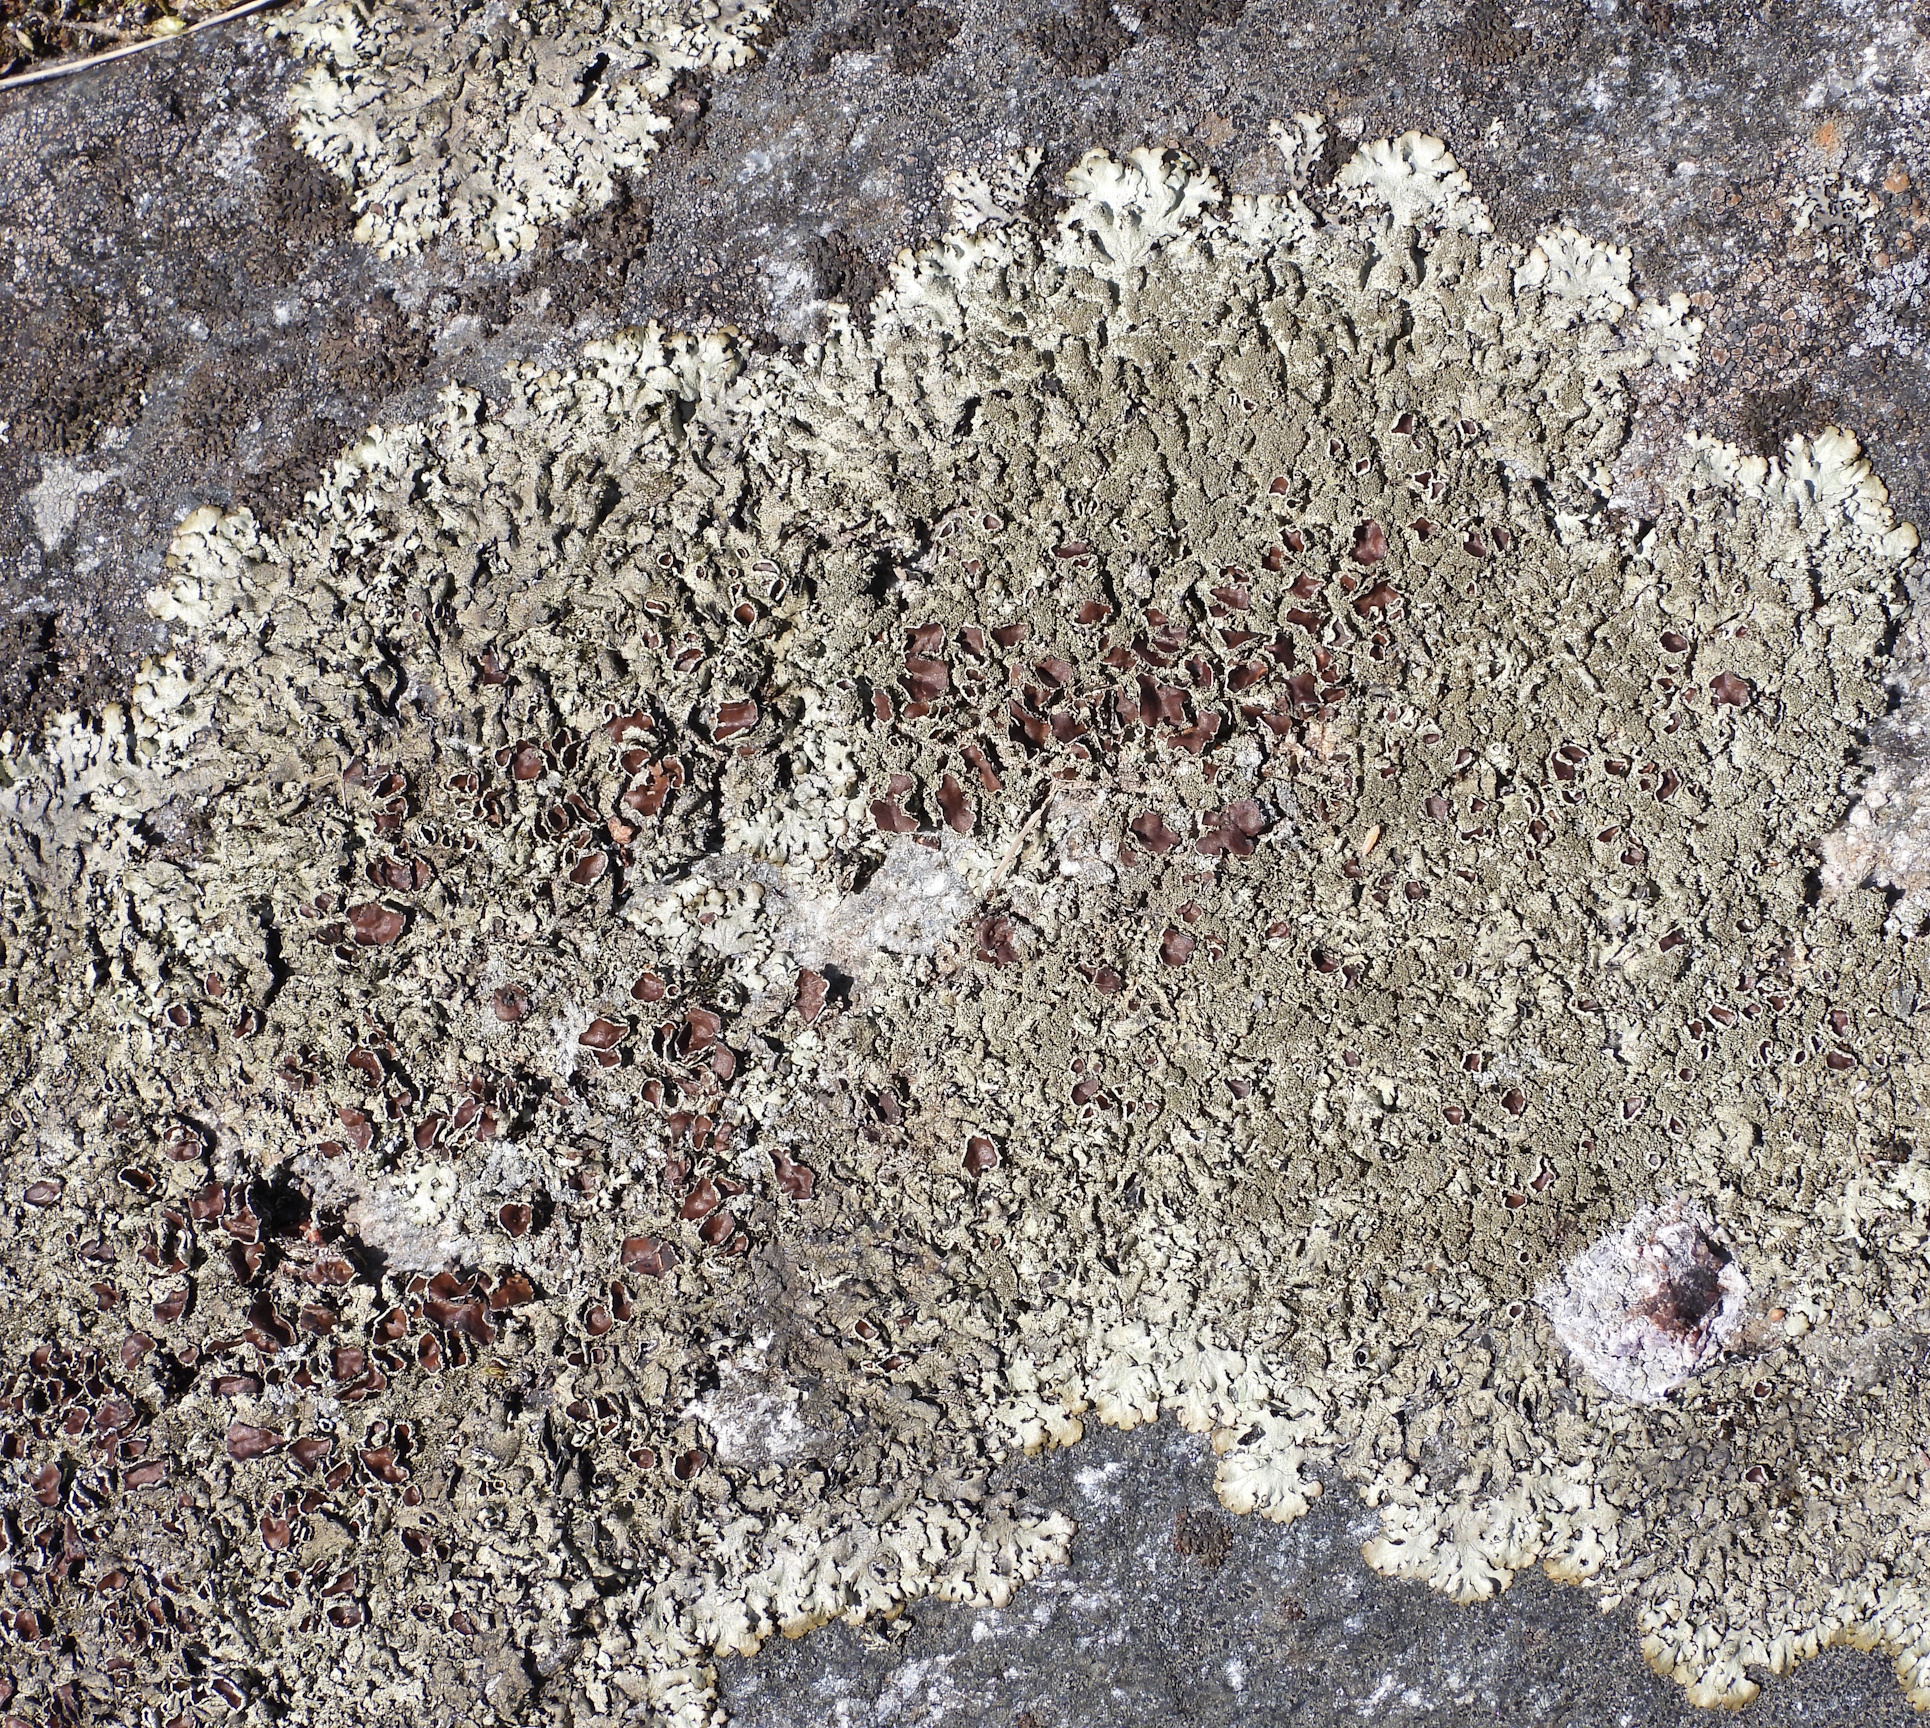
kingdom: Fungi
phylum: Ascomycota
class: Lecanoromycetes
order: Lecanorales
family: Parmeliaceae
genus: Xanthoparmelia
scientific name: Xanthoparmelia conspersa
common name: Peppered rock shield
